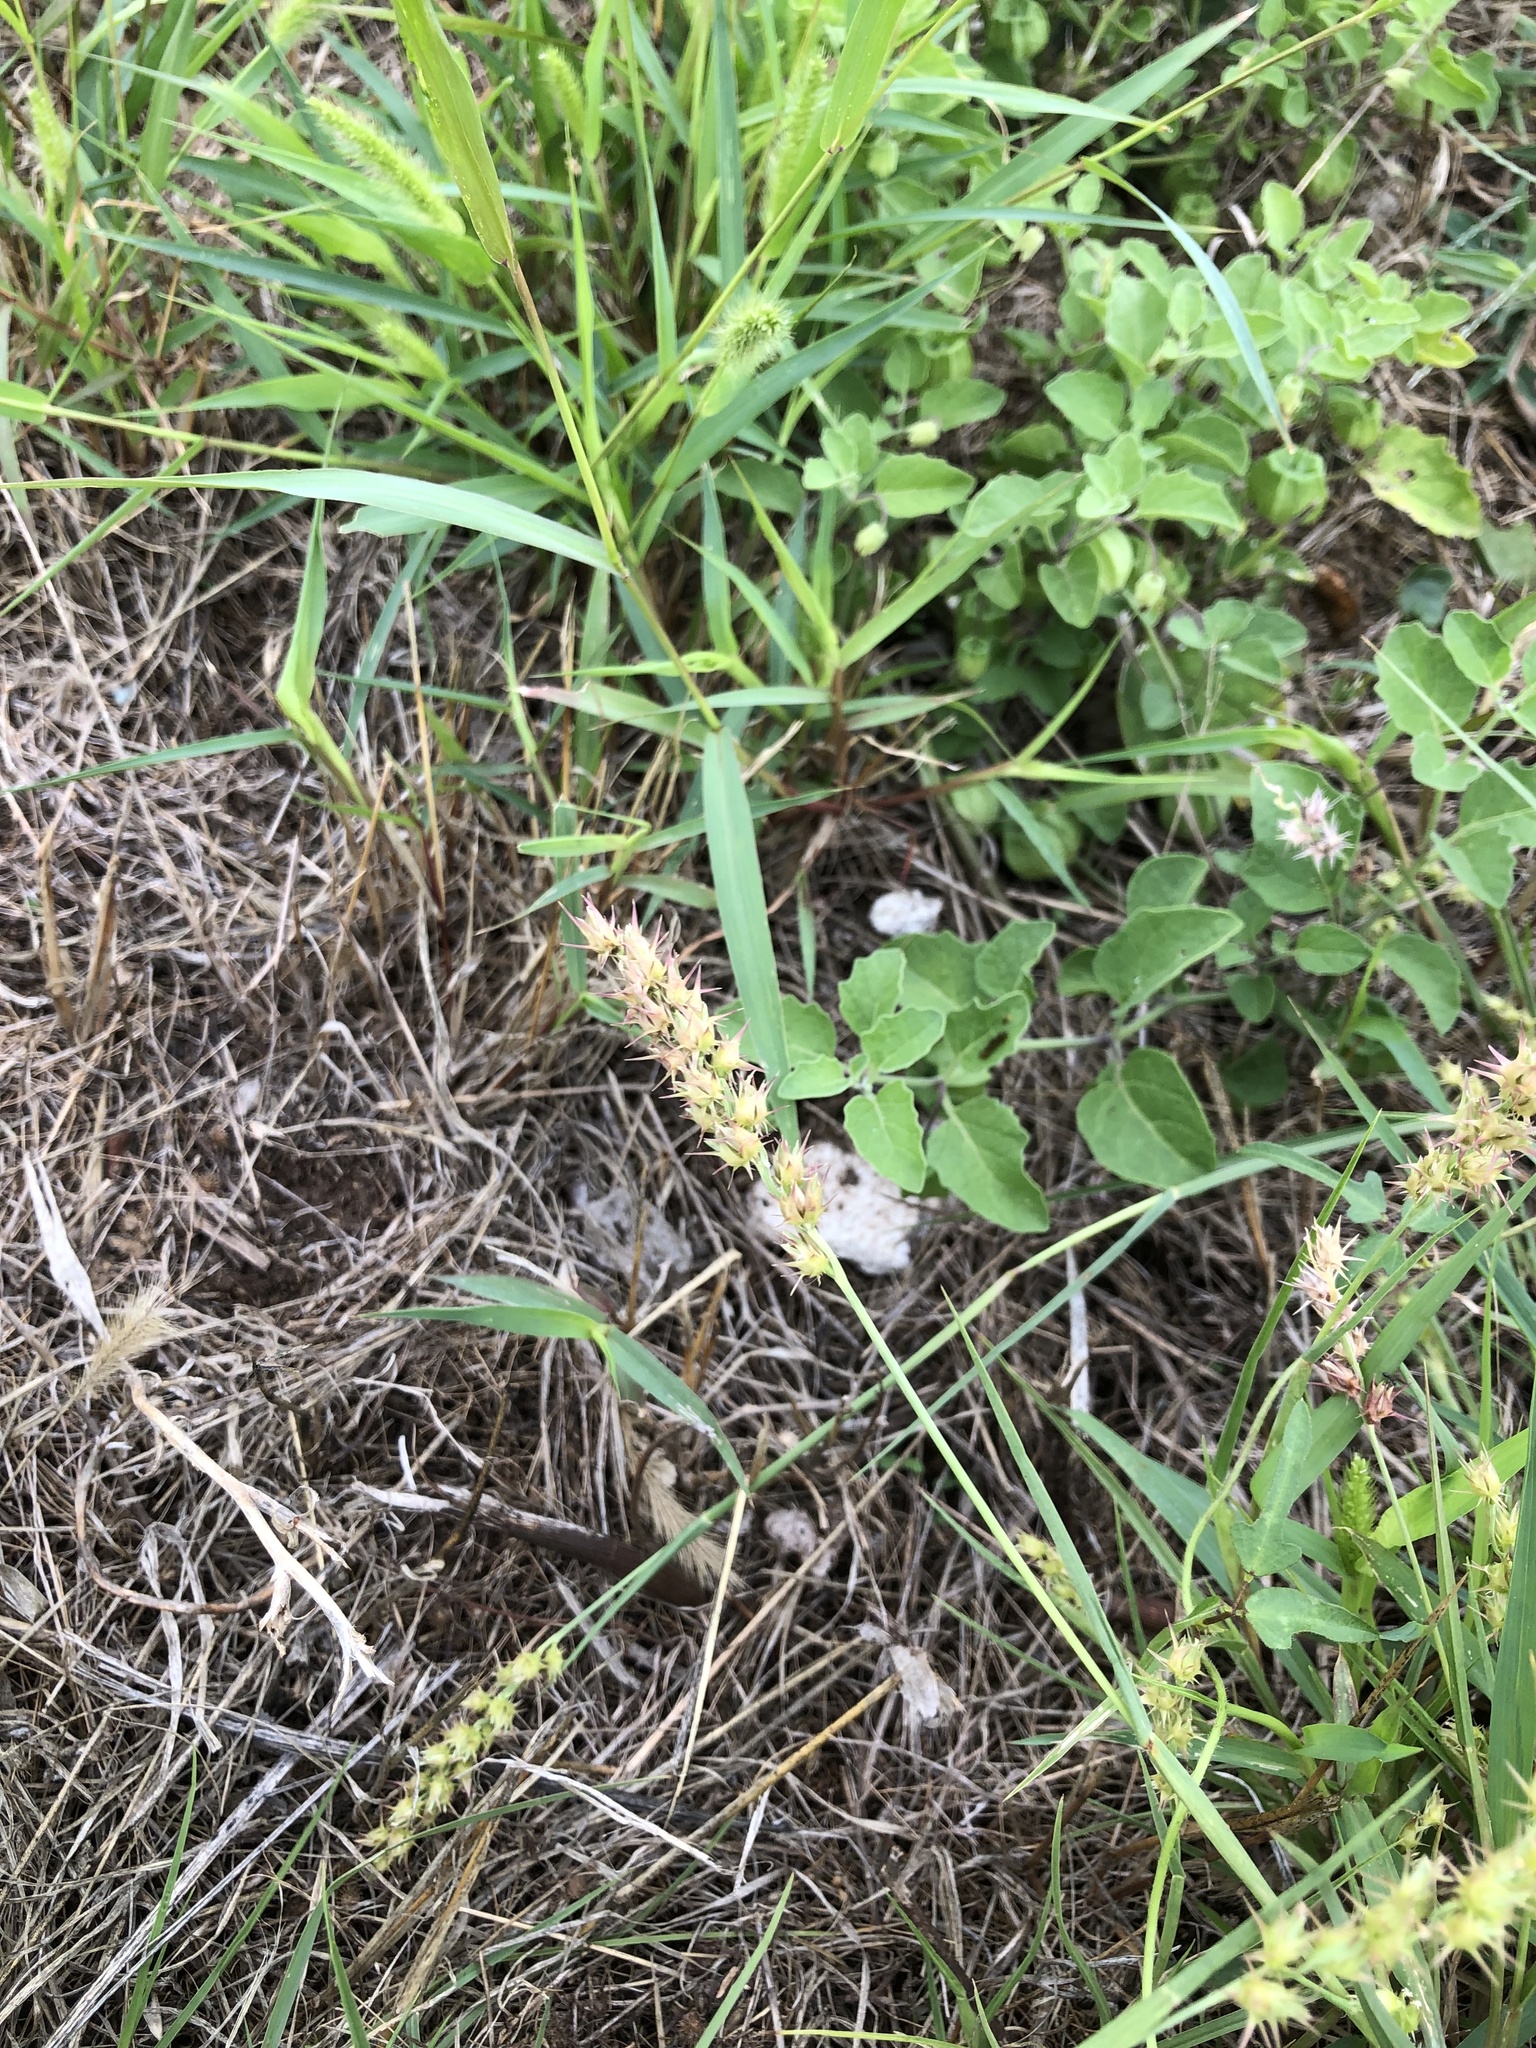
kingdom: Plantae
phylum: Tracheophyta
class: Liliopsida
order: Poales
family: Poaceae
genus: Cenchrus
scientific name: Cenchrus spinifex
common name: Coast sandbur
